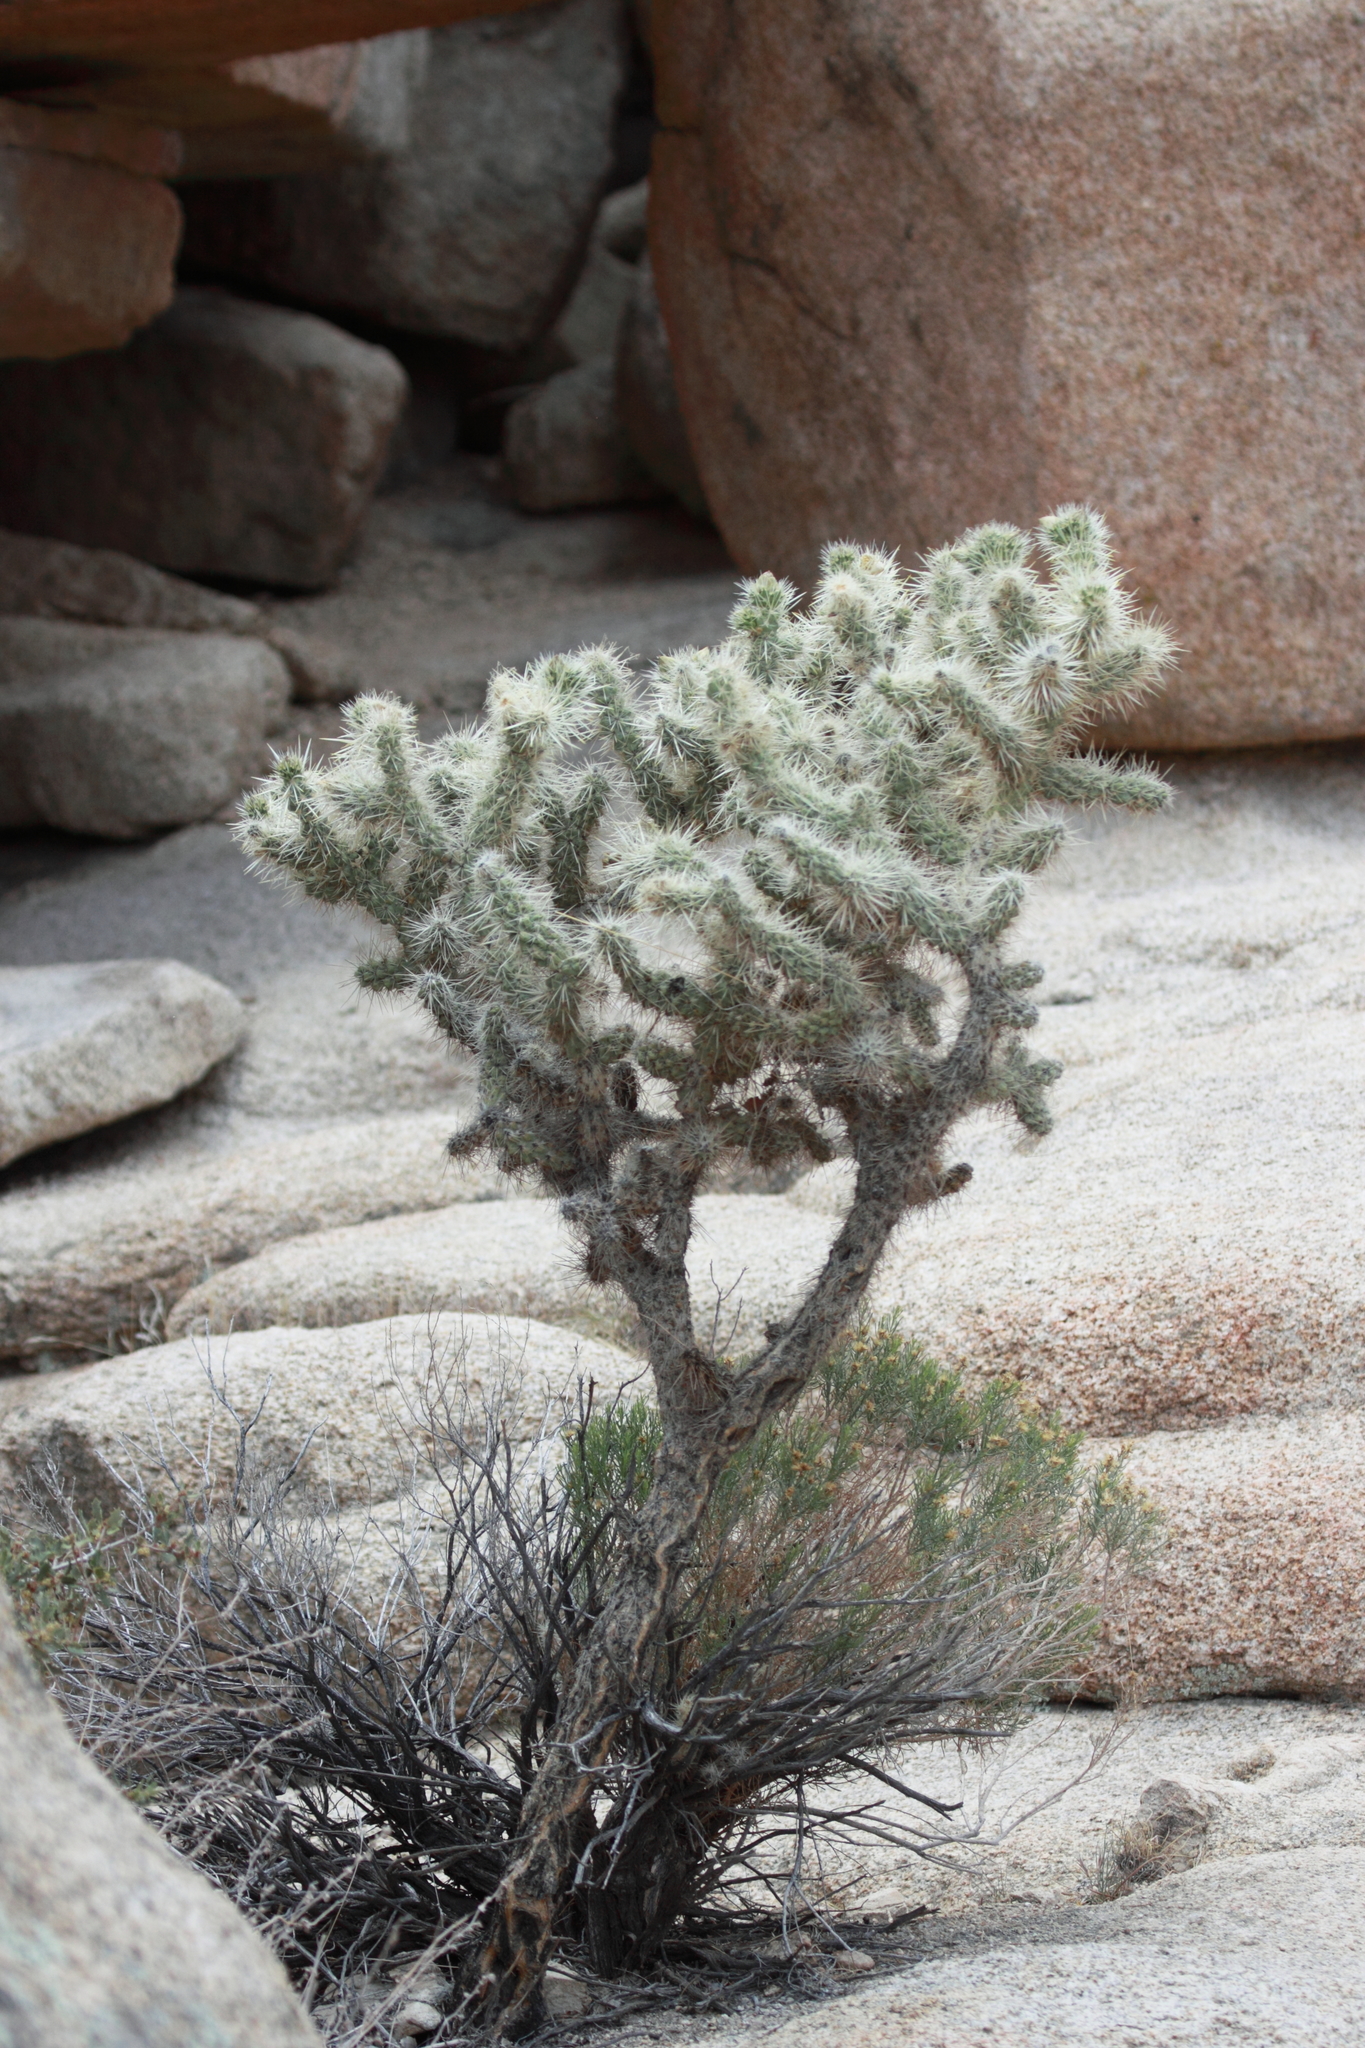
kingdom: Plantae
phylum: Tracheophyta
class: Magnoliopsida
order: Caryophyllales
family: Cactaceae
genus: Cylindropuntia
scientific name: Cylindropuntia echinocarpa
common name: Ground cholla
